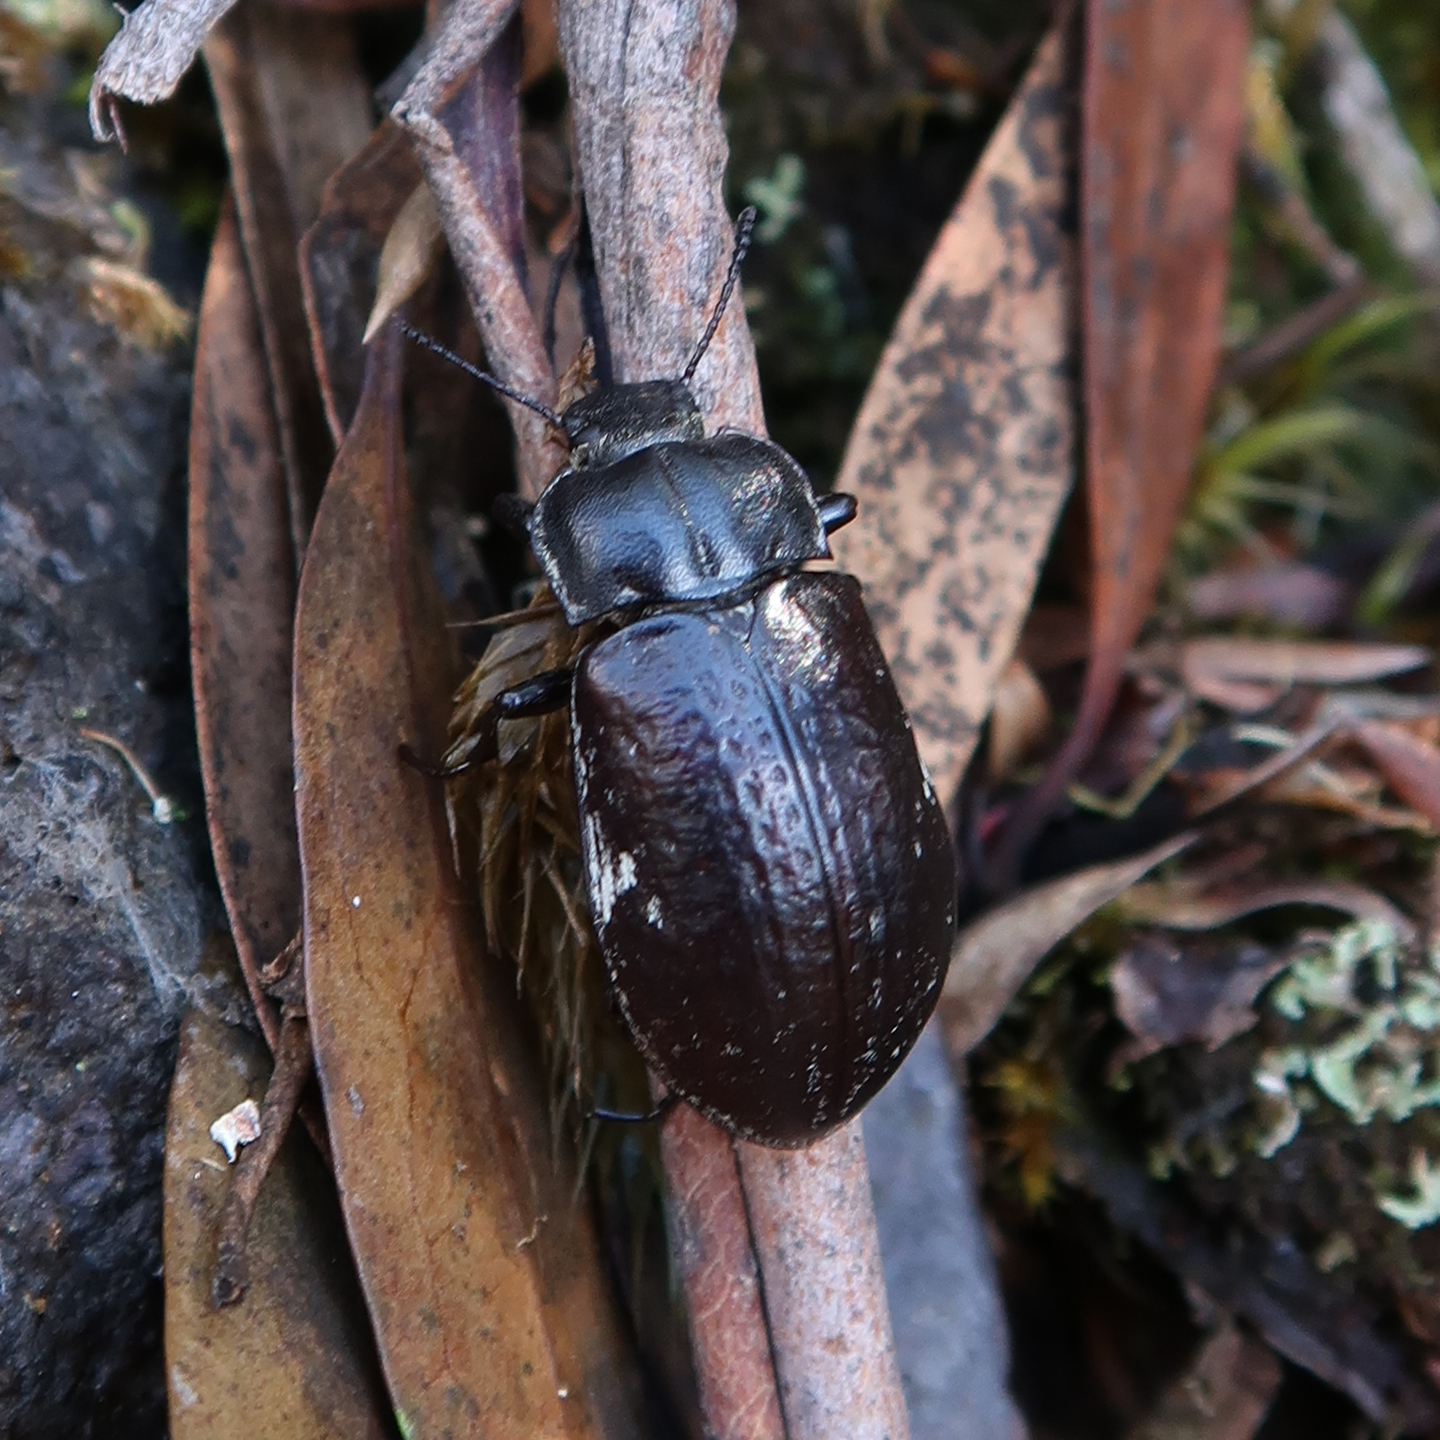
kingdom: Animalia
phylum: Arthropoda
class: Insecta
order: Coleoptera
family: Tenebrionidae
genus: Pachycoelia
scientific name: Pachycoelia
